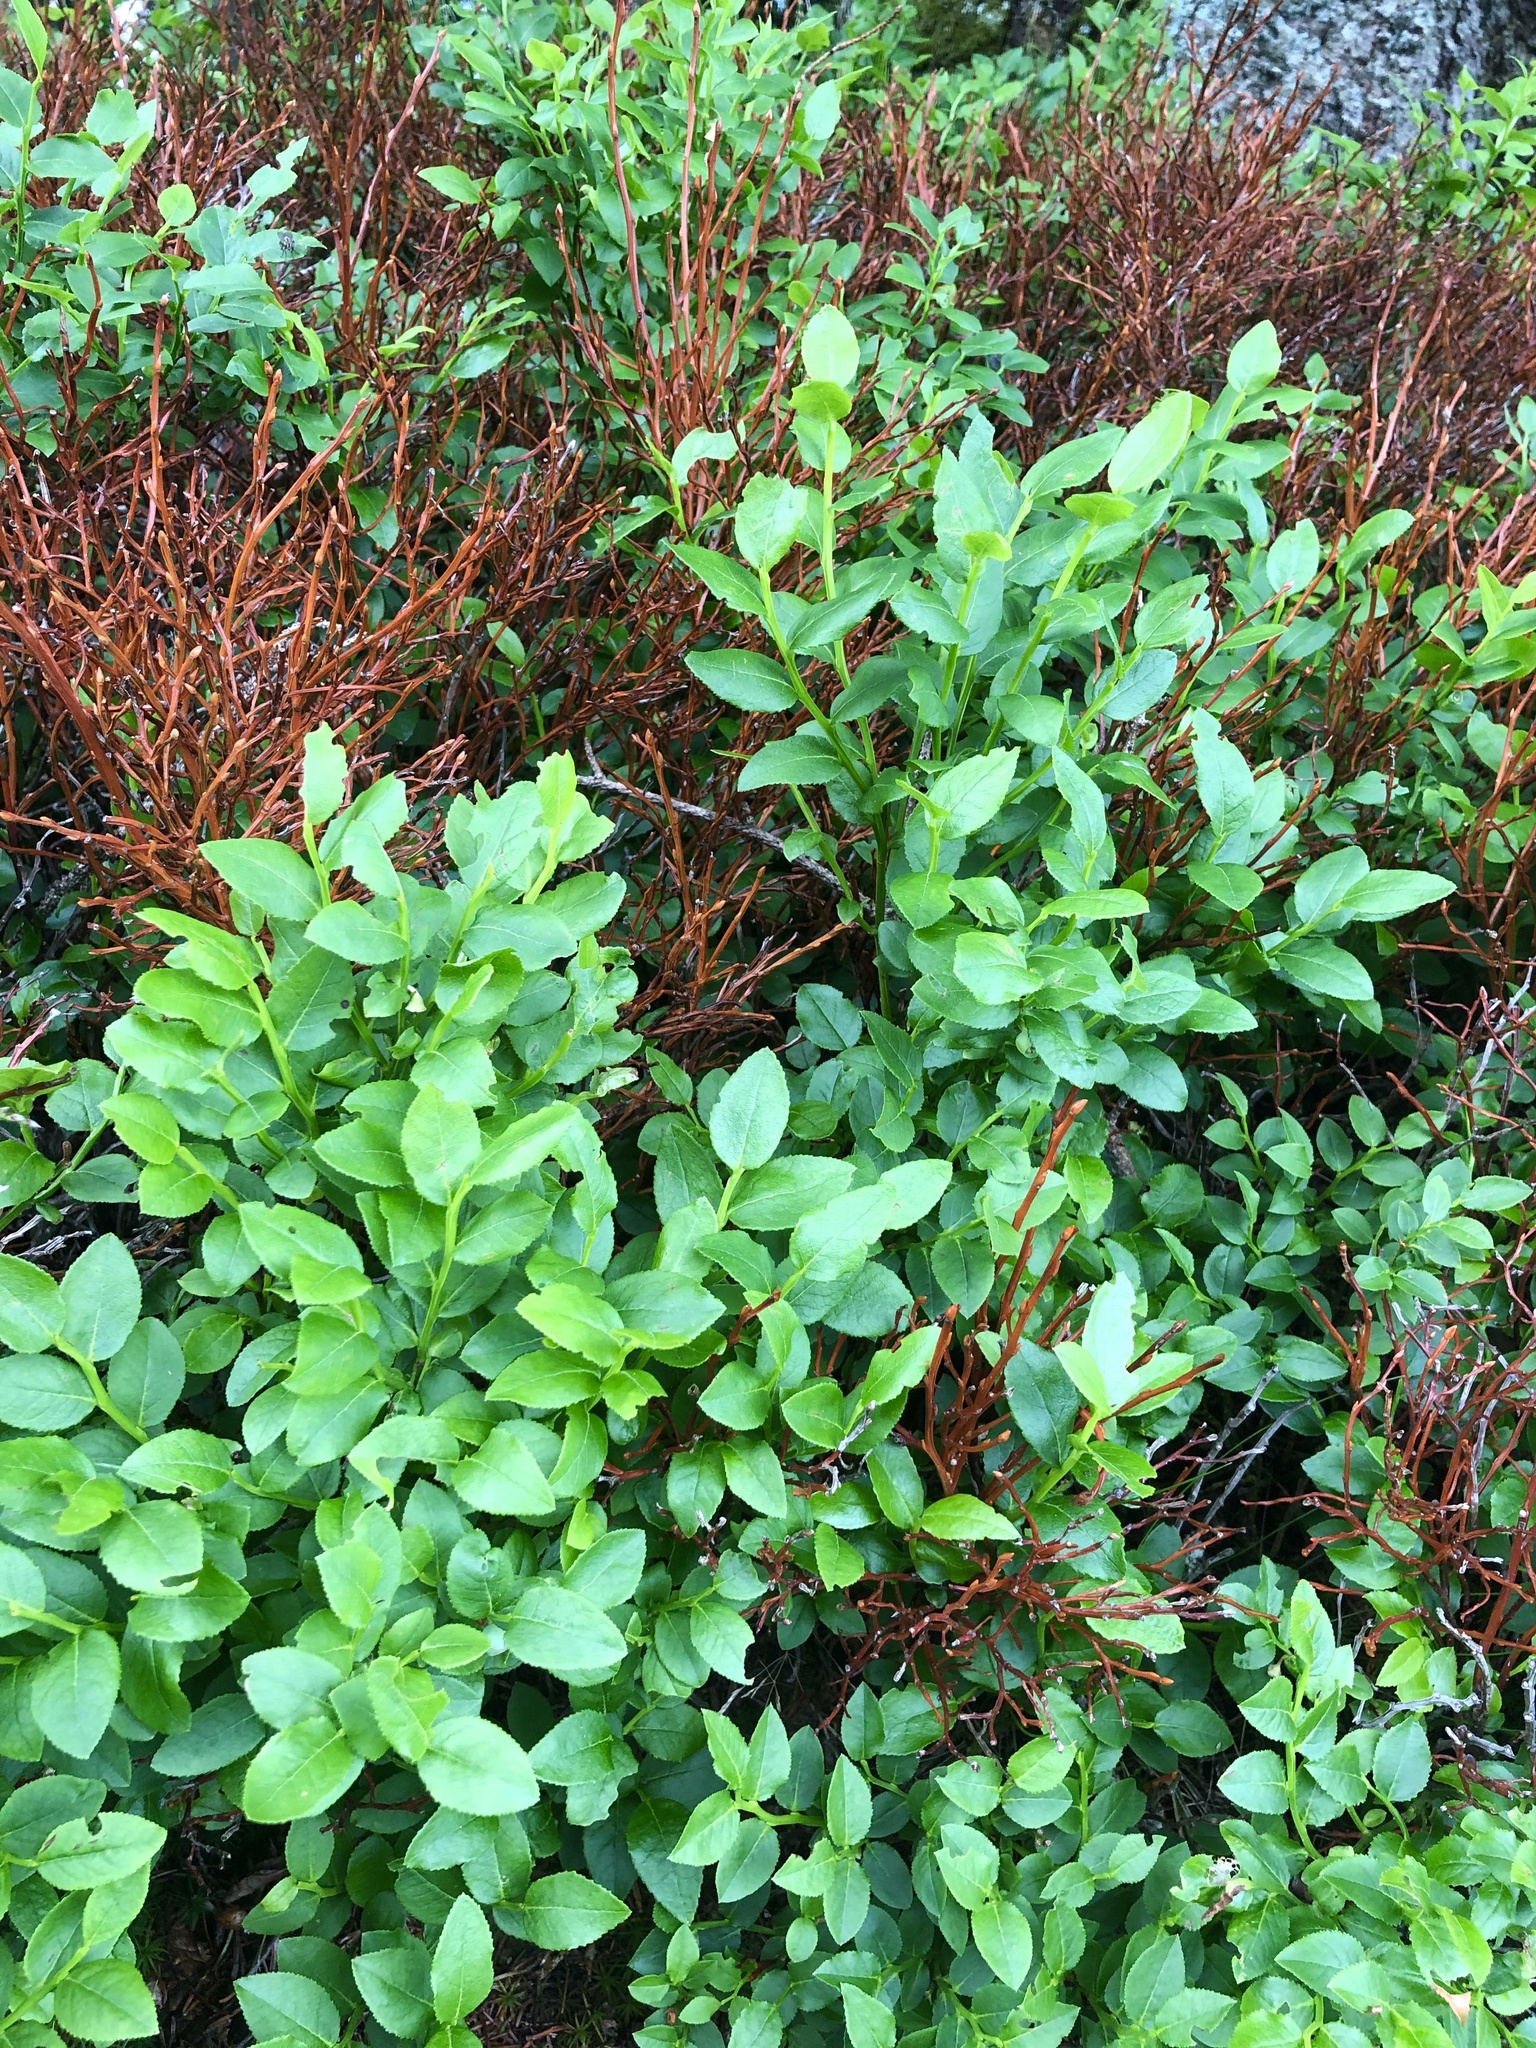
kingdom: Plantae
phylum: Tracheophyta
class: Magnoliopsida
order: Ericales
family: Ericaceae
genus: Vaccinium
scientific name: Vaccinium myrtillus
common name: Bilberry
